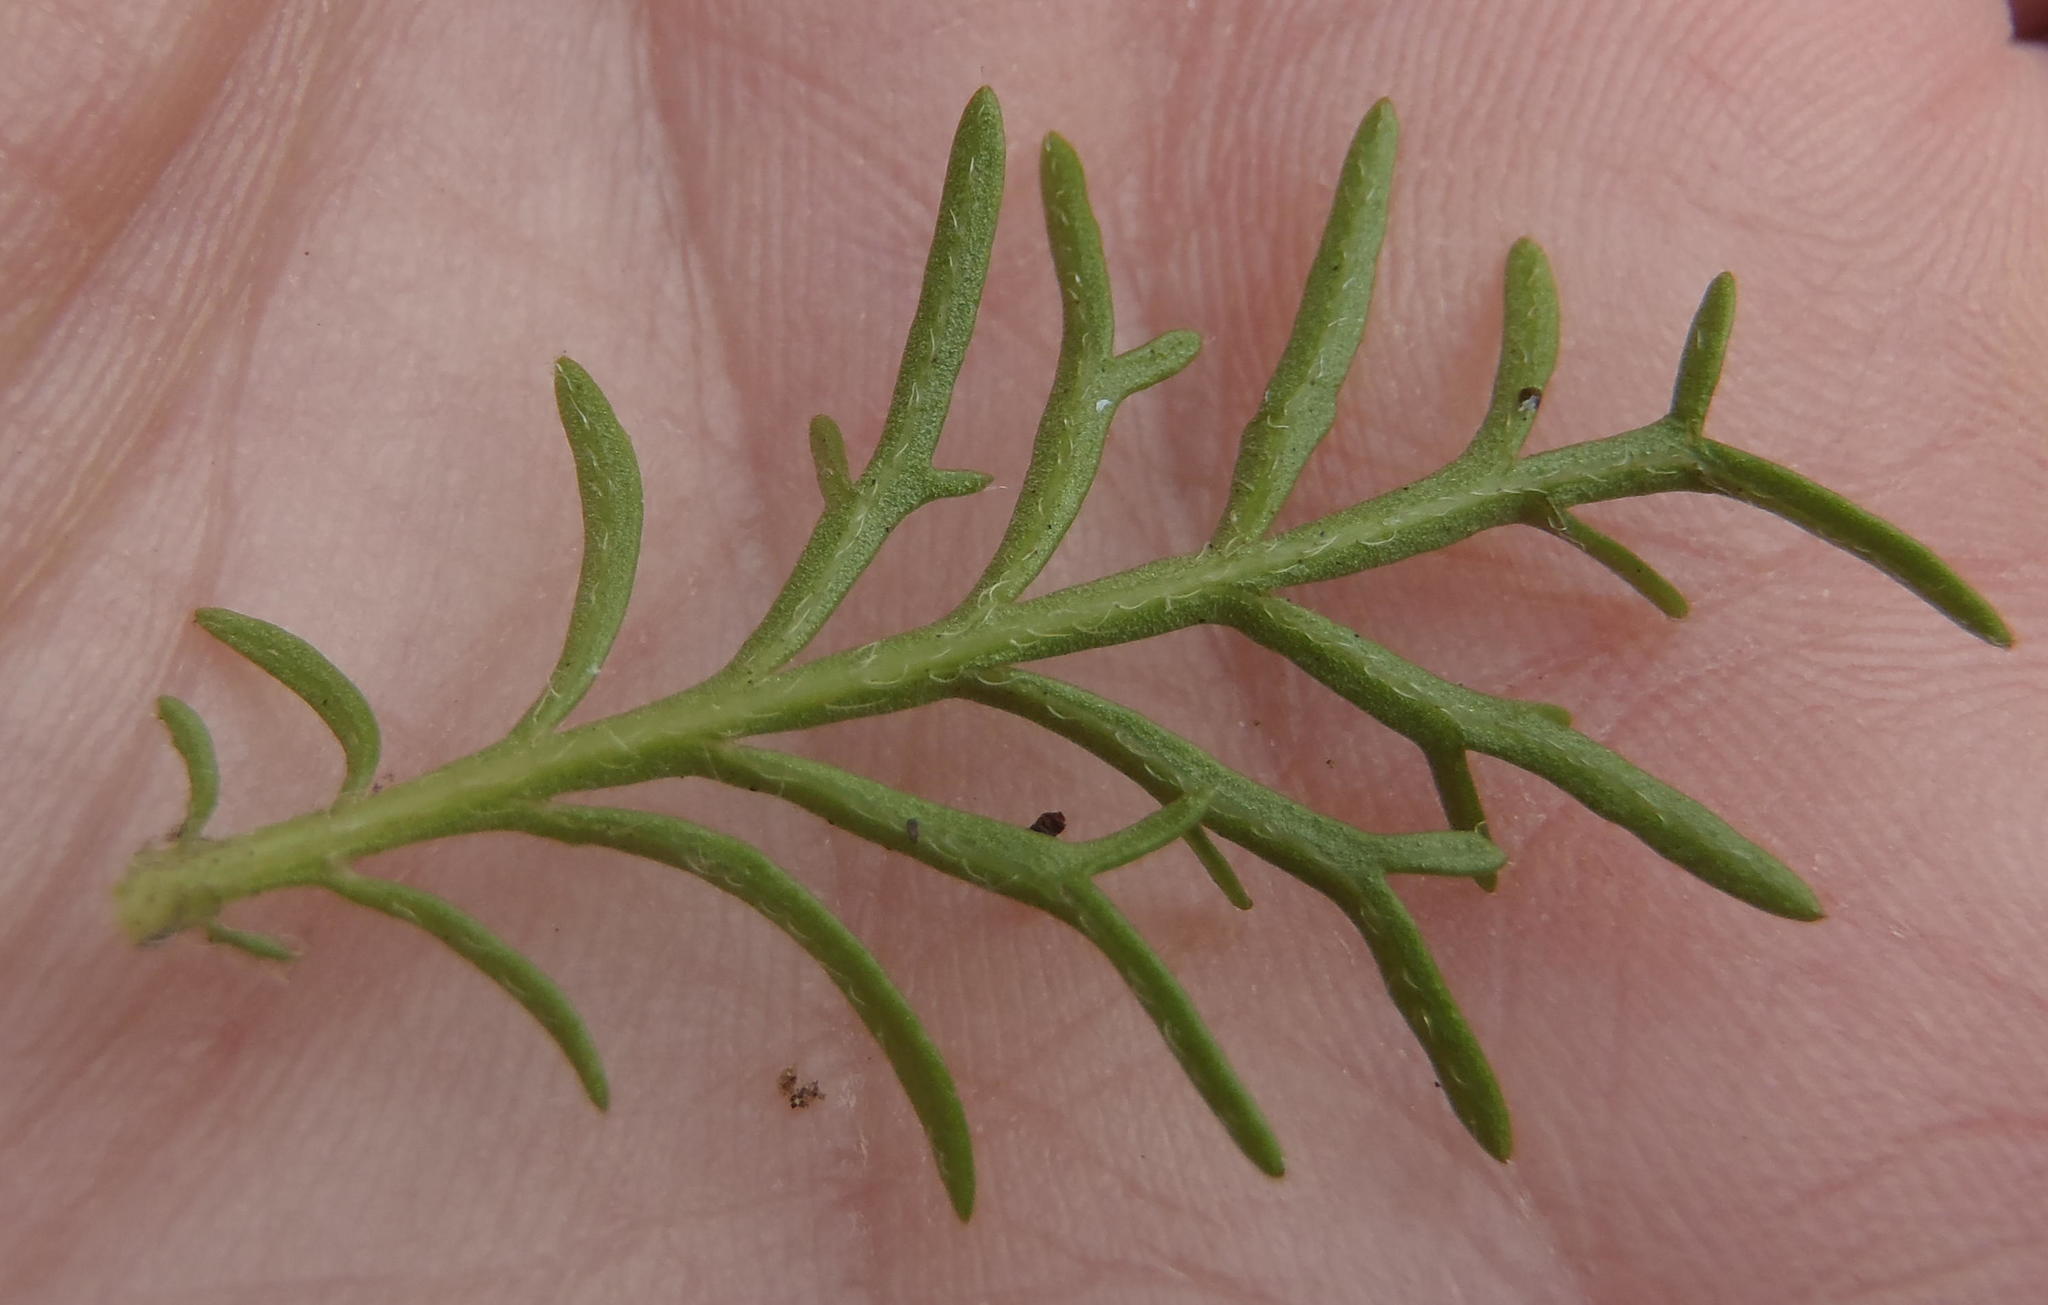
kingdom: Plantae
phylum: Tracheophyta
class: Magnoliopsida
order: Dipsacales
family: Caprifoliaceae
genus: Scabiosa
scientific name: Scabiosa columbaria
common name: Small scabious
